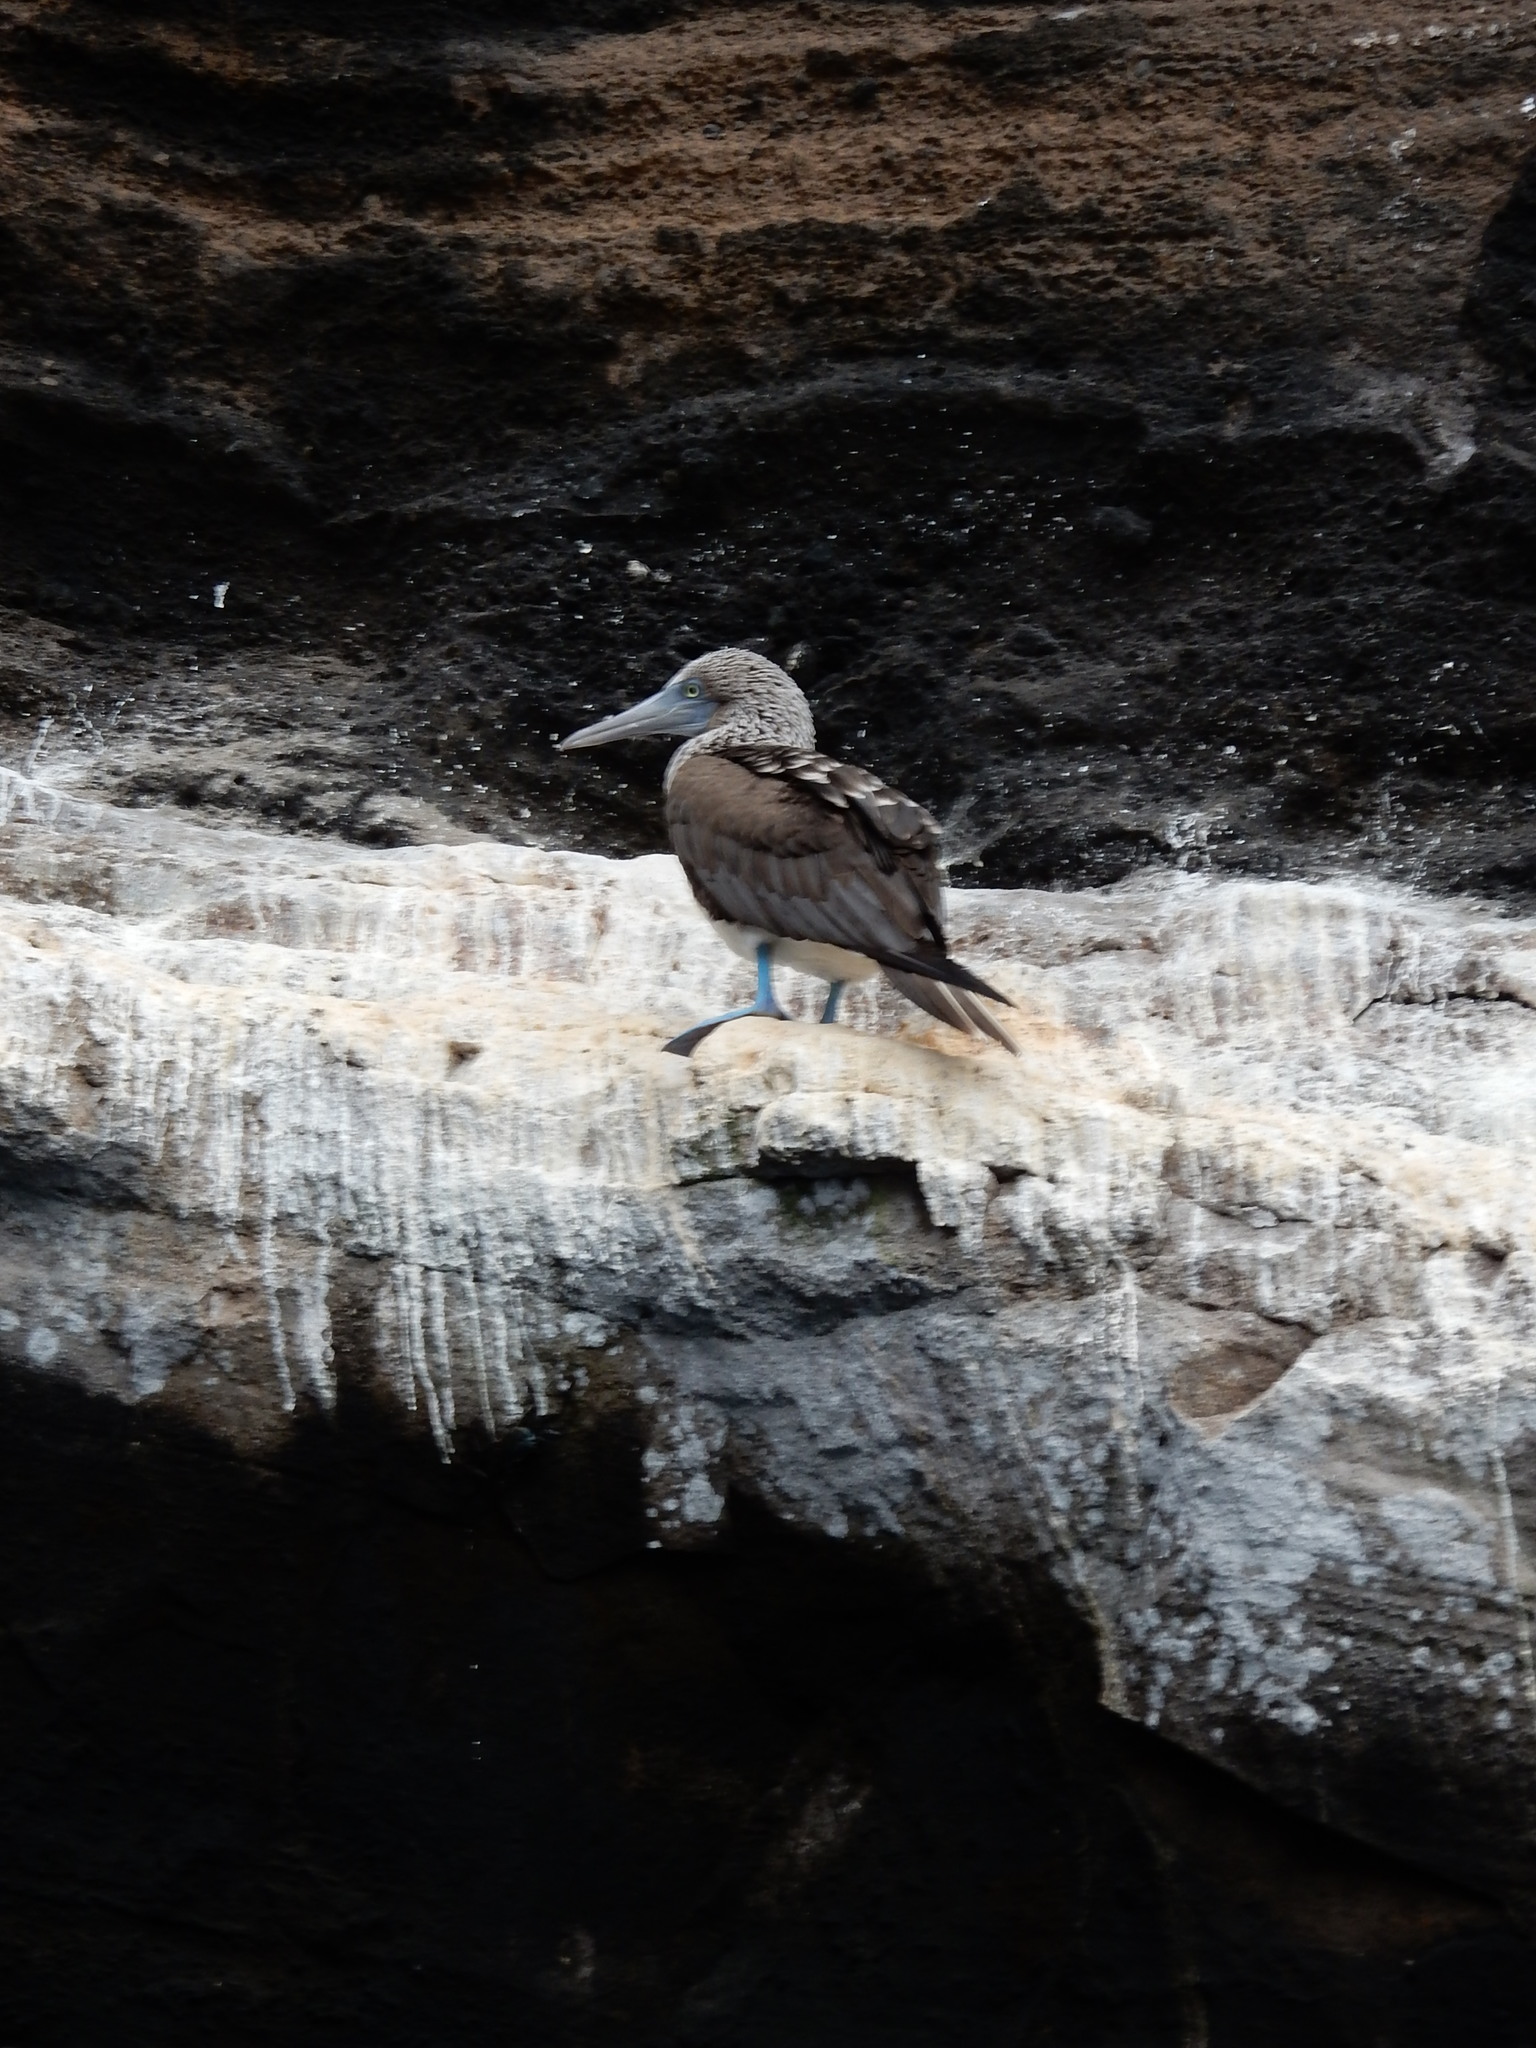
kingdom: Animalia
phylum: Chordata
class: Aves
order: Suliformes
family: Sulidae
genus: Sula
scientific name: Sula nebouxii
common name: Blue-footed booby
